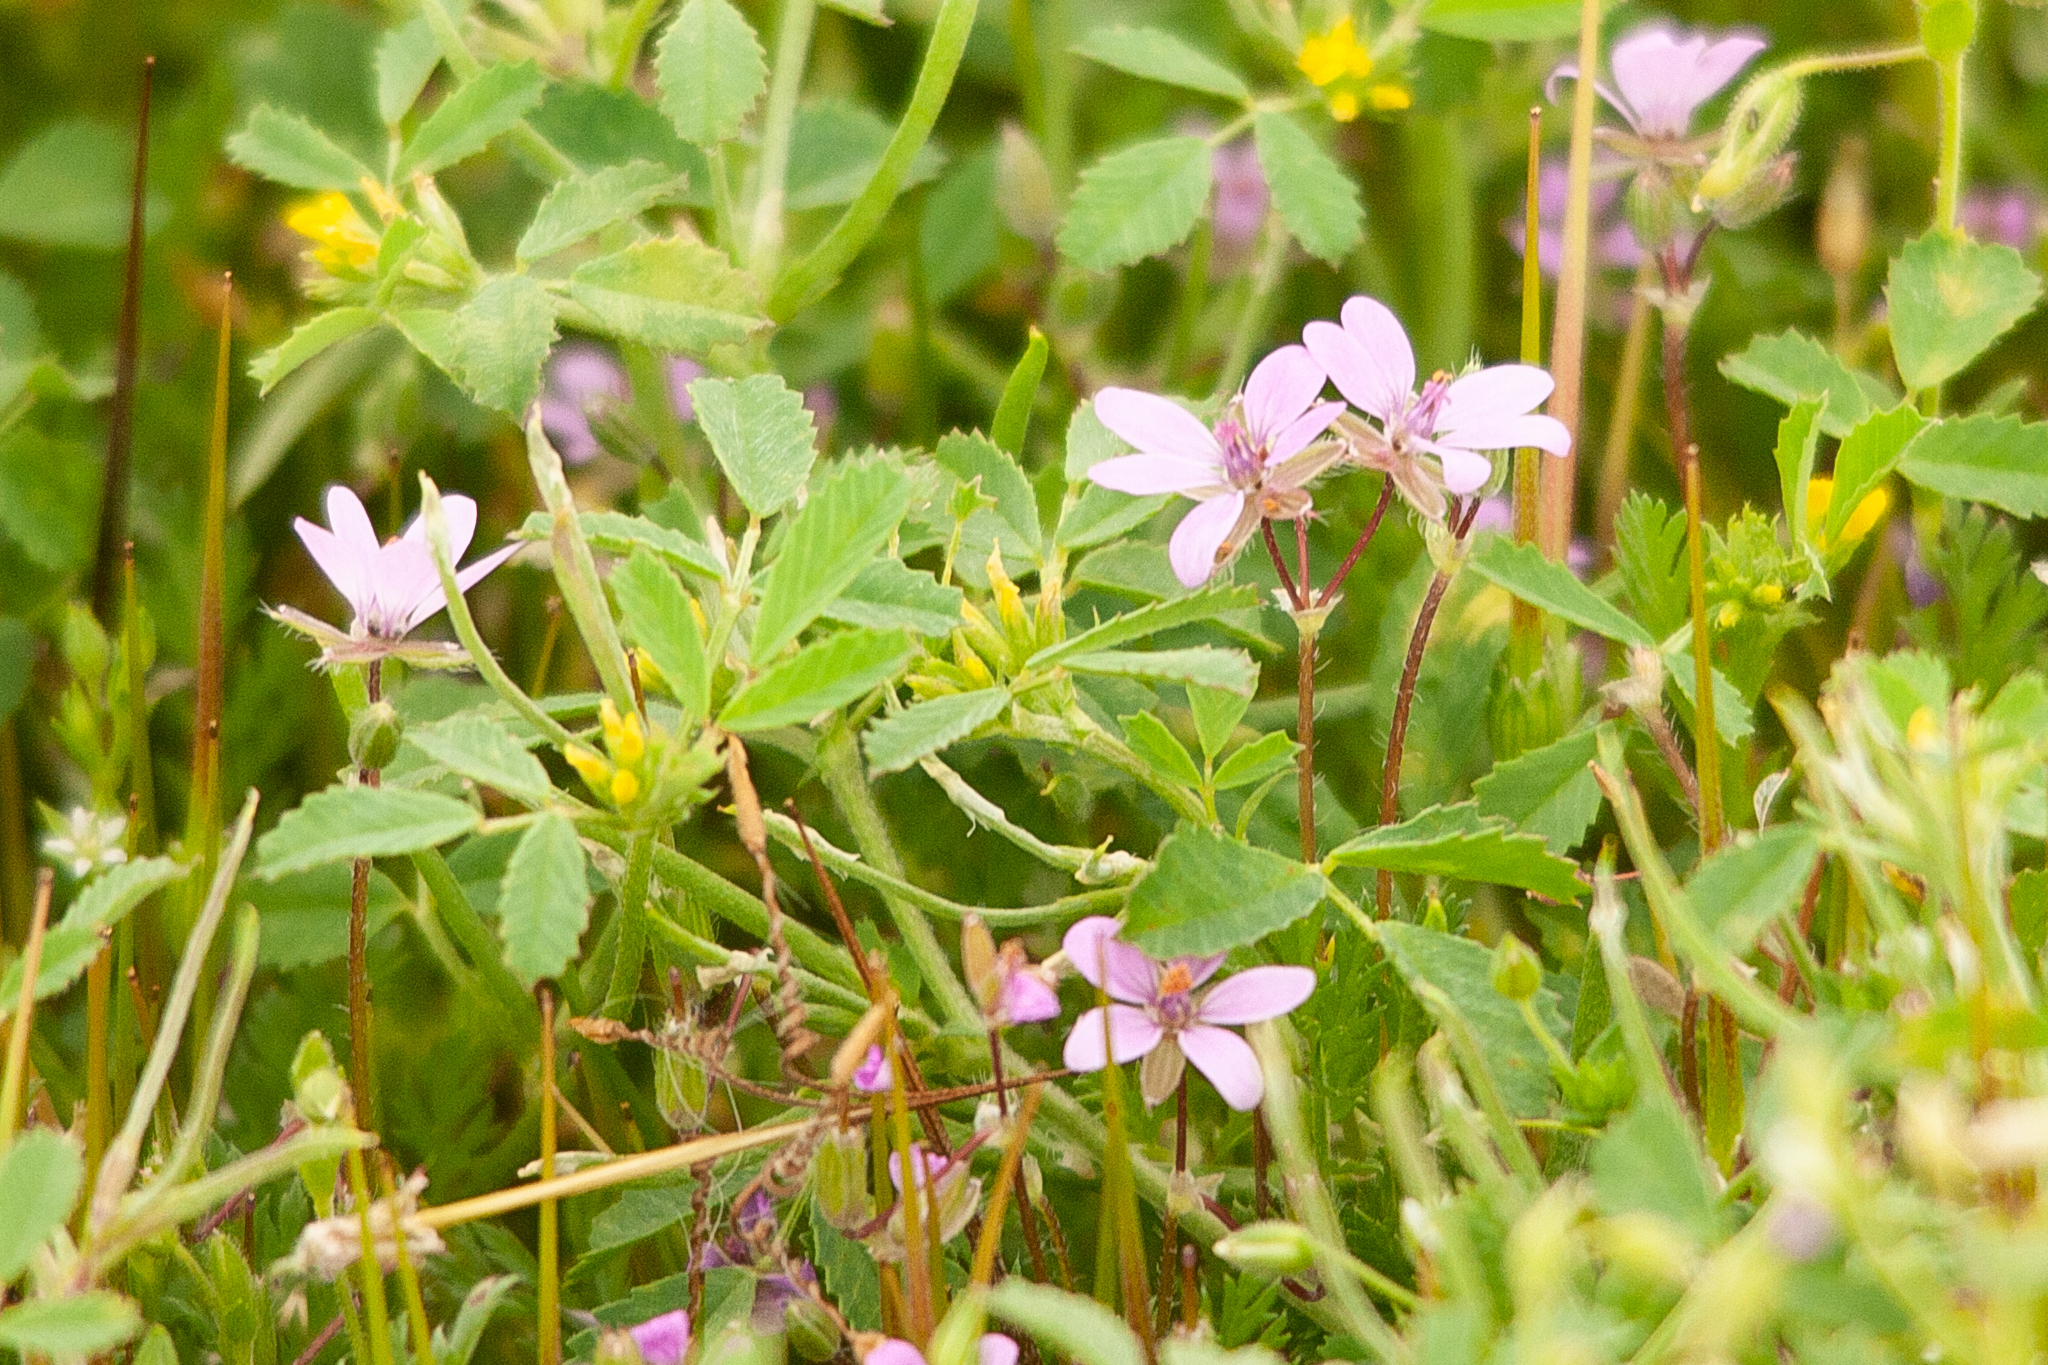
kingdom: Plantae
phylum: Tracheophyta
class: Magnoliopsida
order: Geraniales
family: Geraniaceae
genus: Erodium
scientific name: Erodium cicutarium
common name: Common stork's-bill
